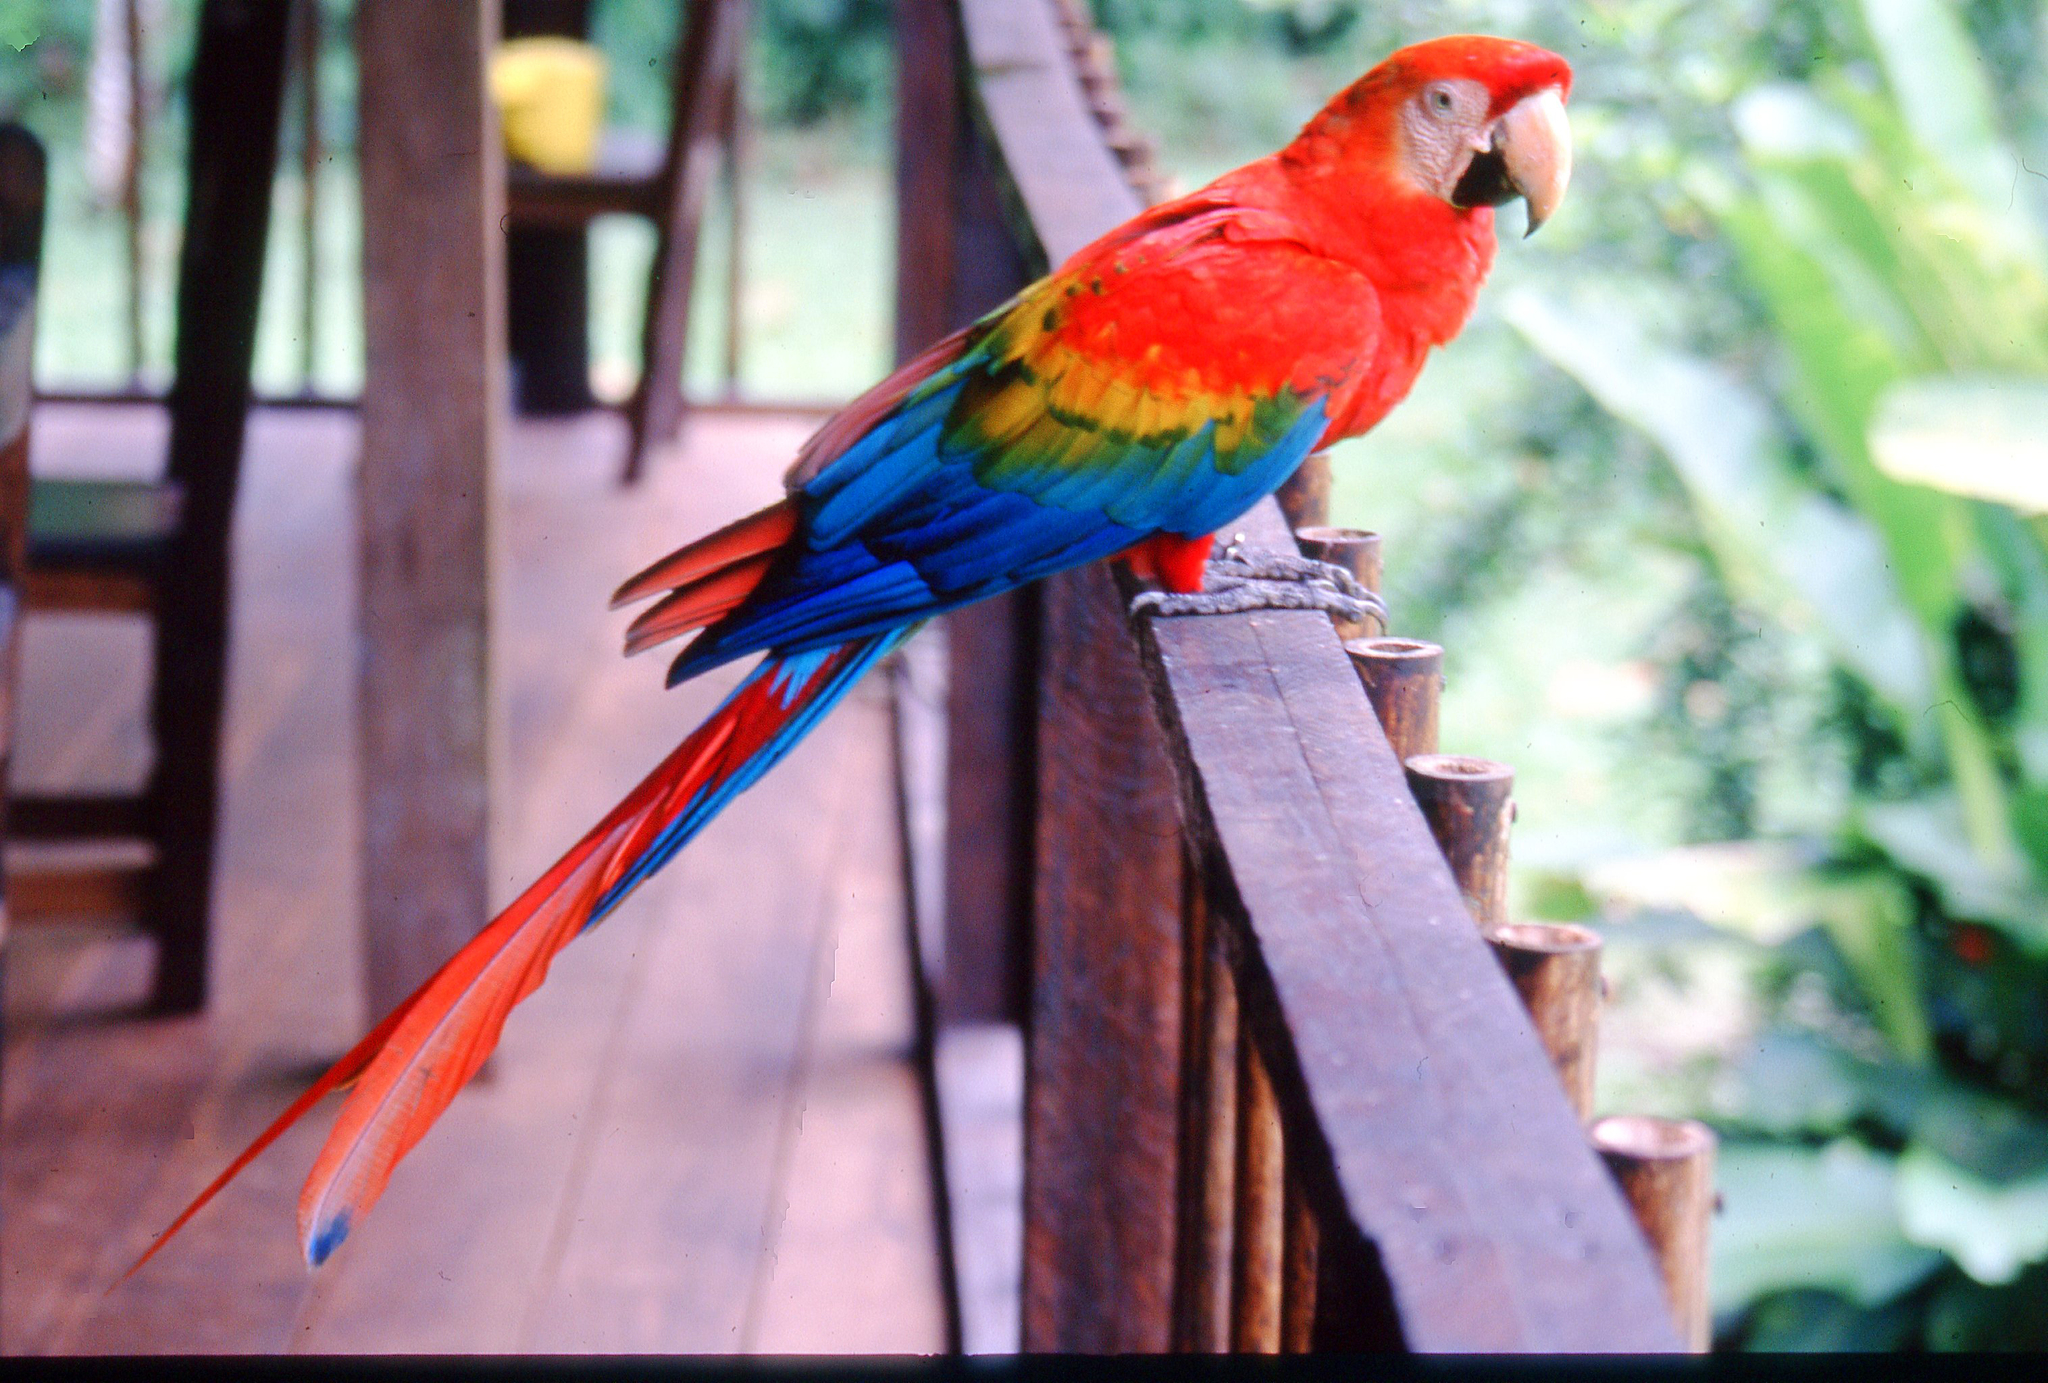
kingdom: Animalia
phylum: Chordata
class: Aves
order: Psittaciformes
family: Psittacidae
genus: Ara
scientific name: Ara macao
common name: Scarlet macaw
